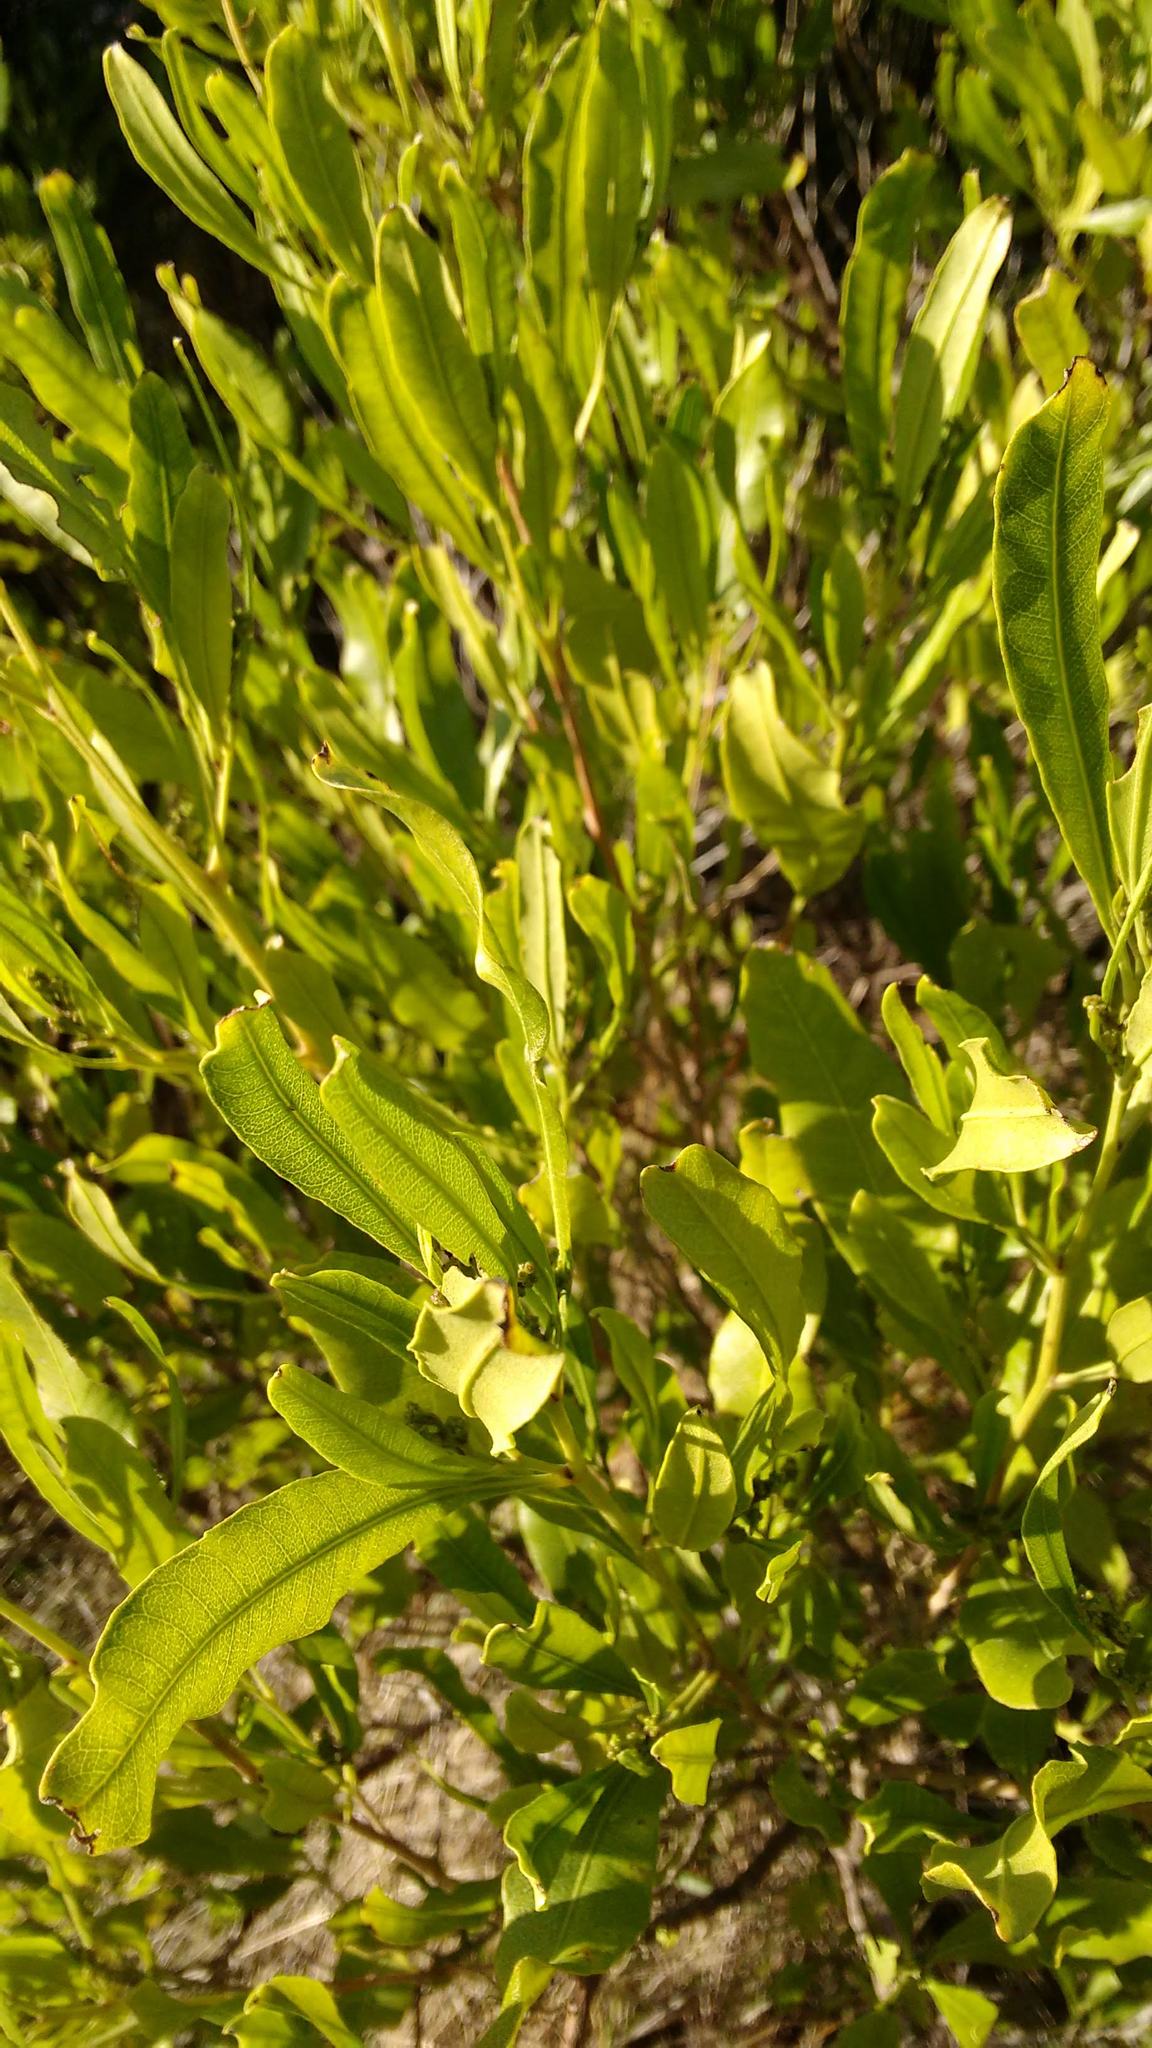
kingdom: Plantae
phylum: Tracheophyta
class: Magnoliopsida
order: Sapindales
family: Sapindaceae
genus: Dodonaea
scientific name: Dodonaea viscosa
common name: Hopbush
